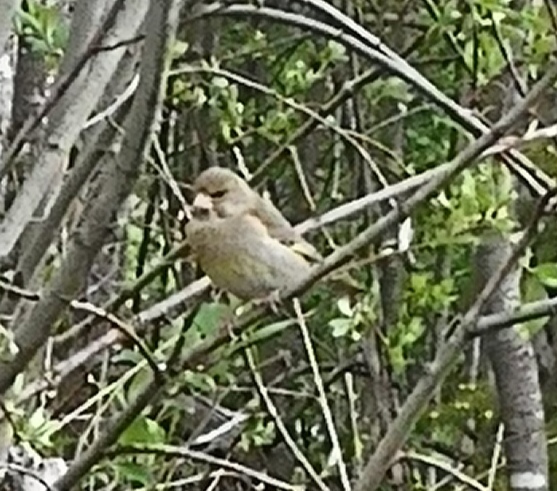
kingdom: Plantae
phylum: Tracheophyta
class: Liliopsida
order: Poales
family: Poaceae
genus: Chloris
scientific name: Chloris chloris
